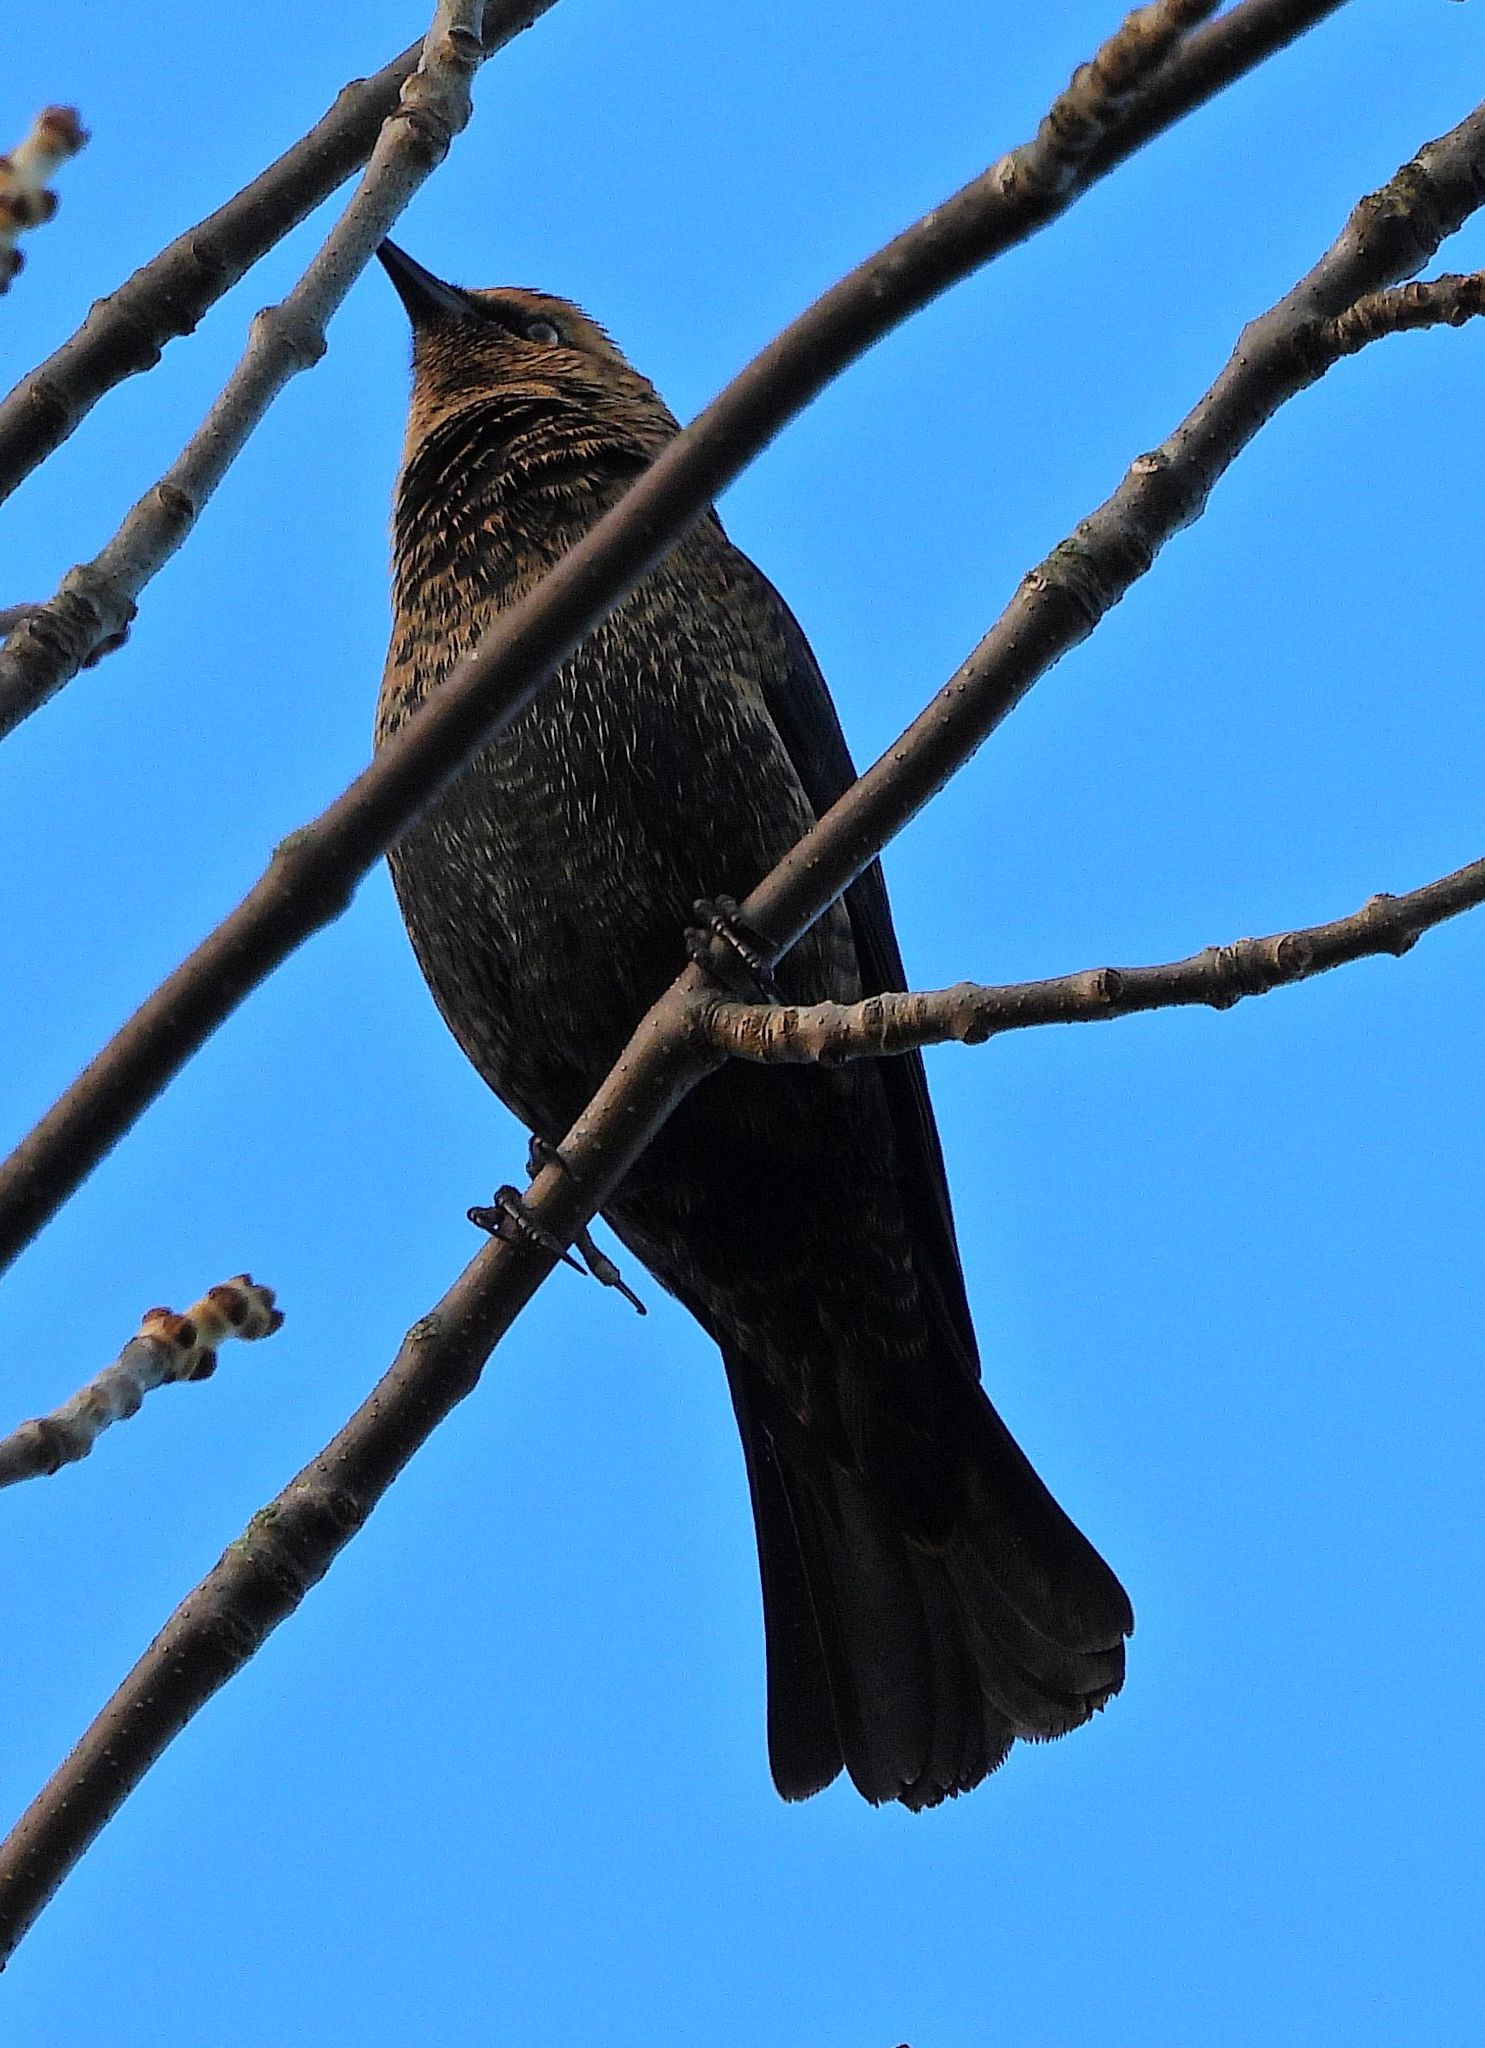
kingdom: Animalia
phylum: Chordata
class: Aves
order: Passeriformes
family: Icteridae
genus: Euphagus
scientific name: Euphagus carolinus
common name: Rusty blackbird
